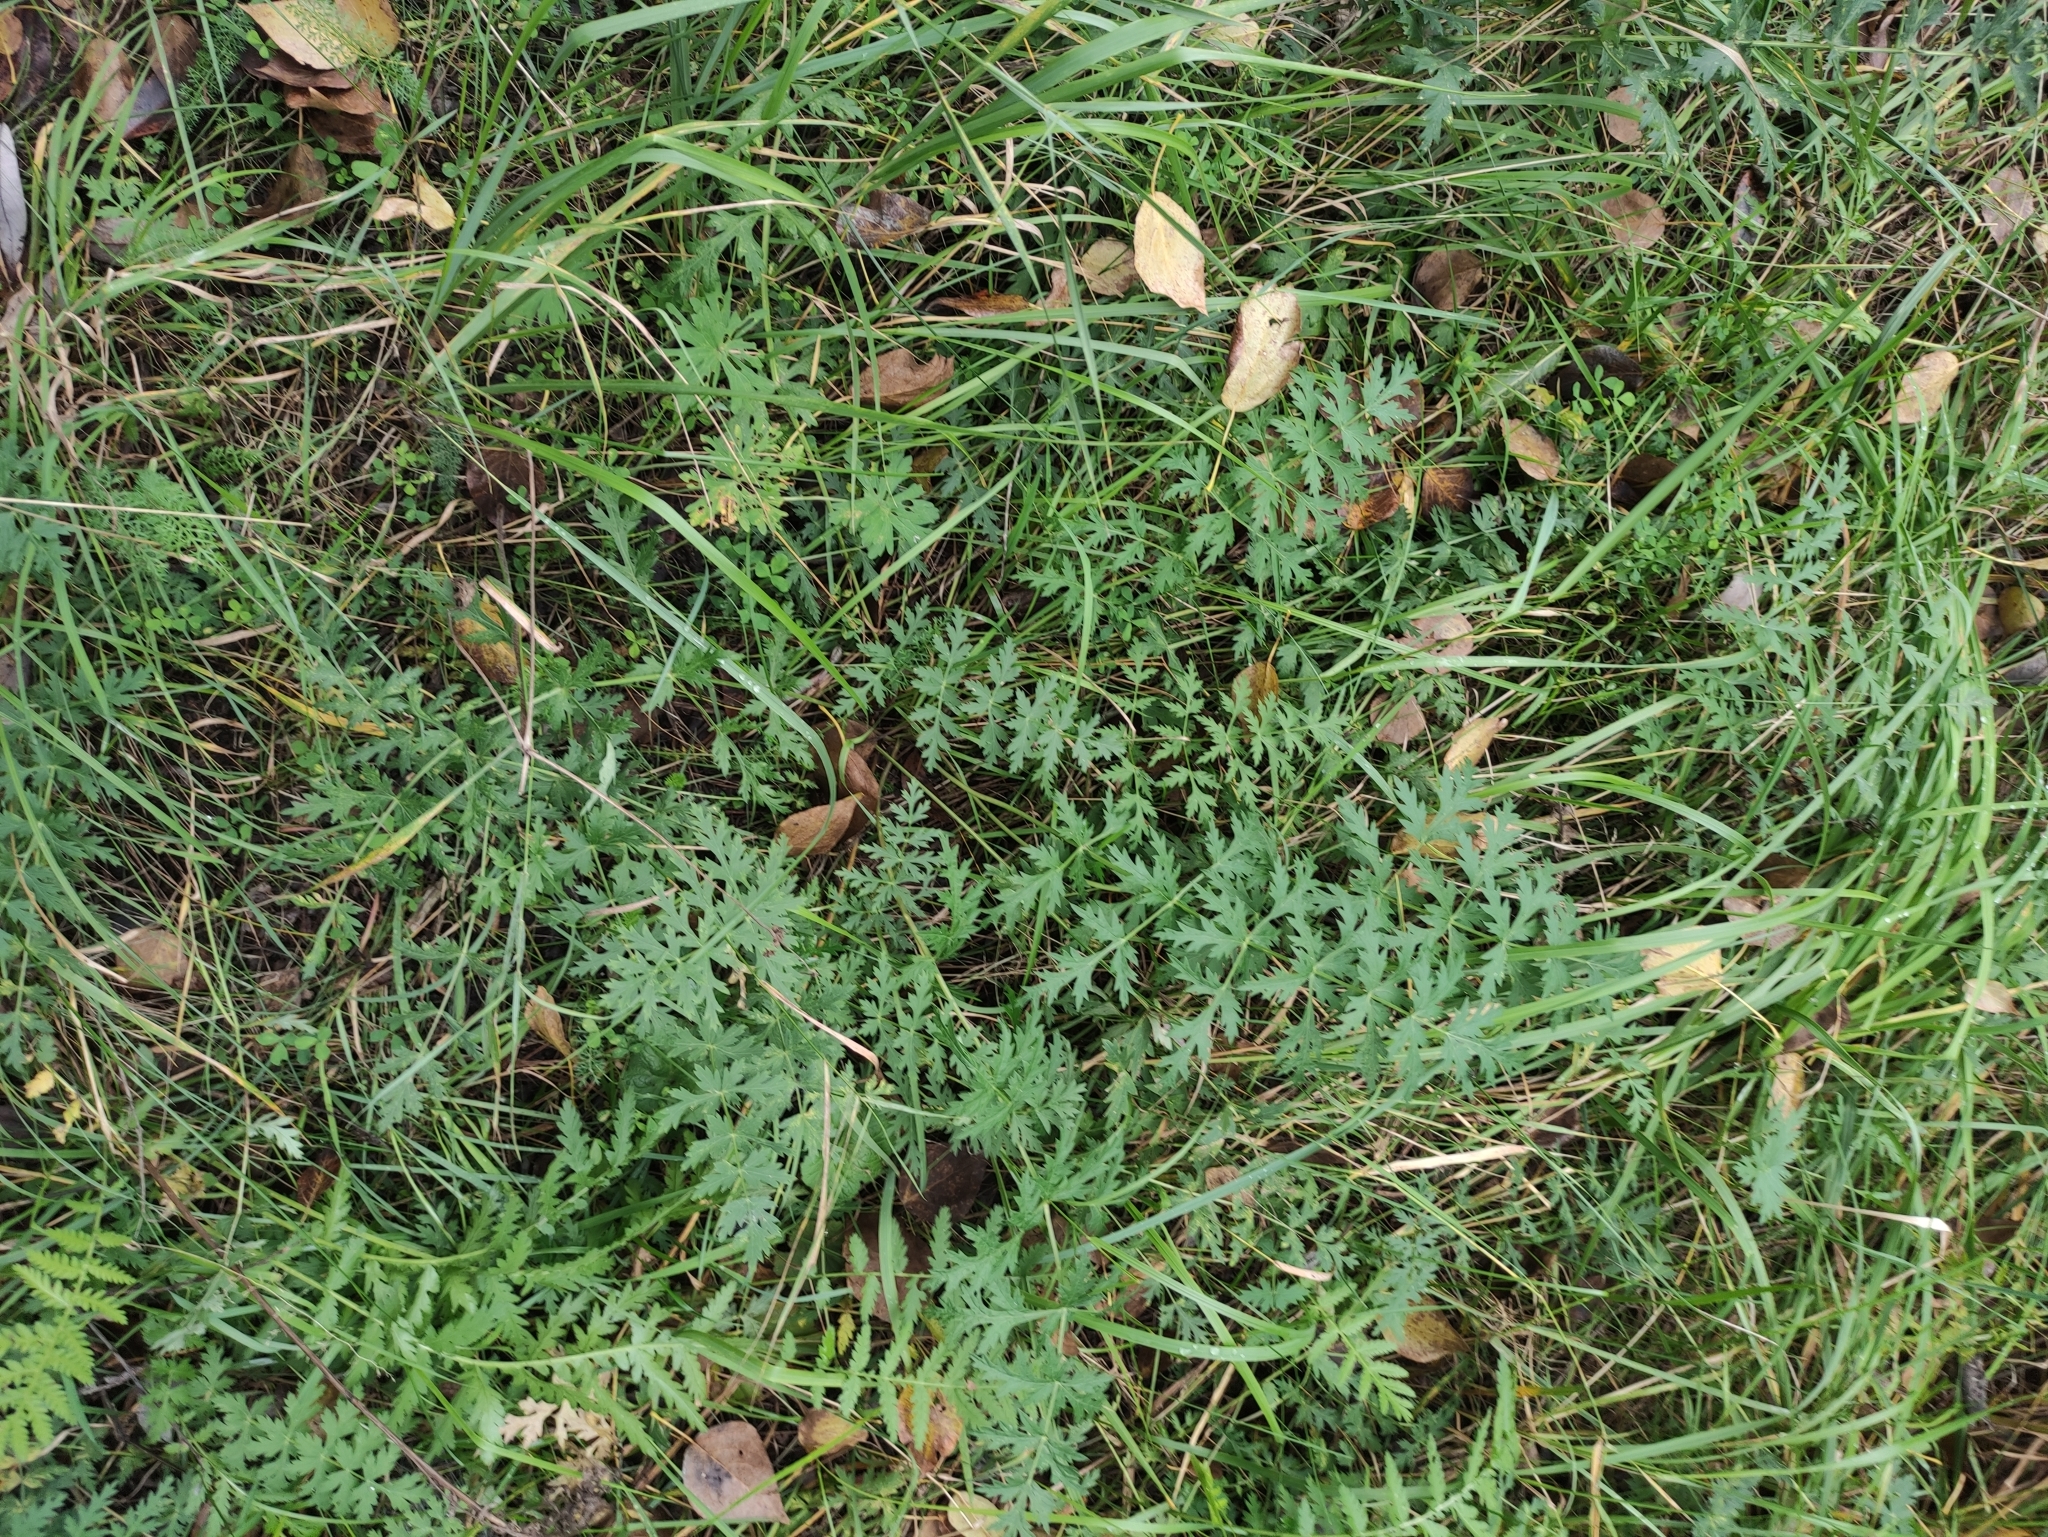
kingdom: Plantae
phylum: Tracheophyta
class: Magnoliopsida
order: Apiales
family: Apiaceae
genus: Seseli
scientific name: Seseli libanotis
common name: Mooncarrot
